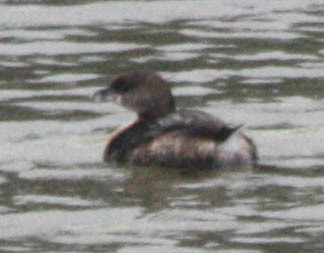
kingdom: Animalia
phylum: Chordata
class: Aves
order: Podicipediformes
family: Podicipedidae
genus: Podilymbus
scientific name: Podilymbus podiceps
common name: Pied-billed grebe
